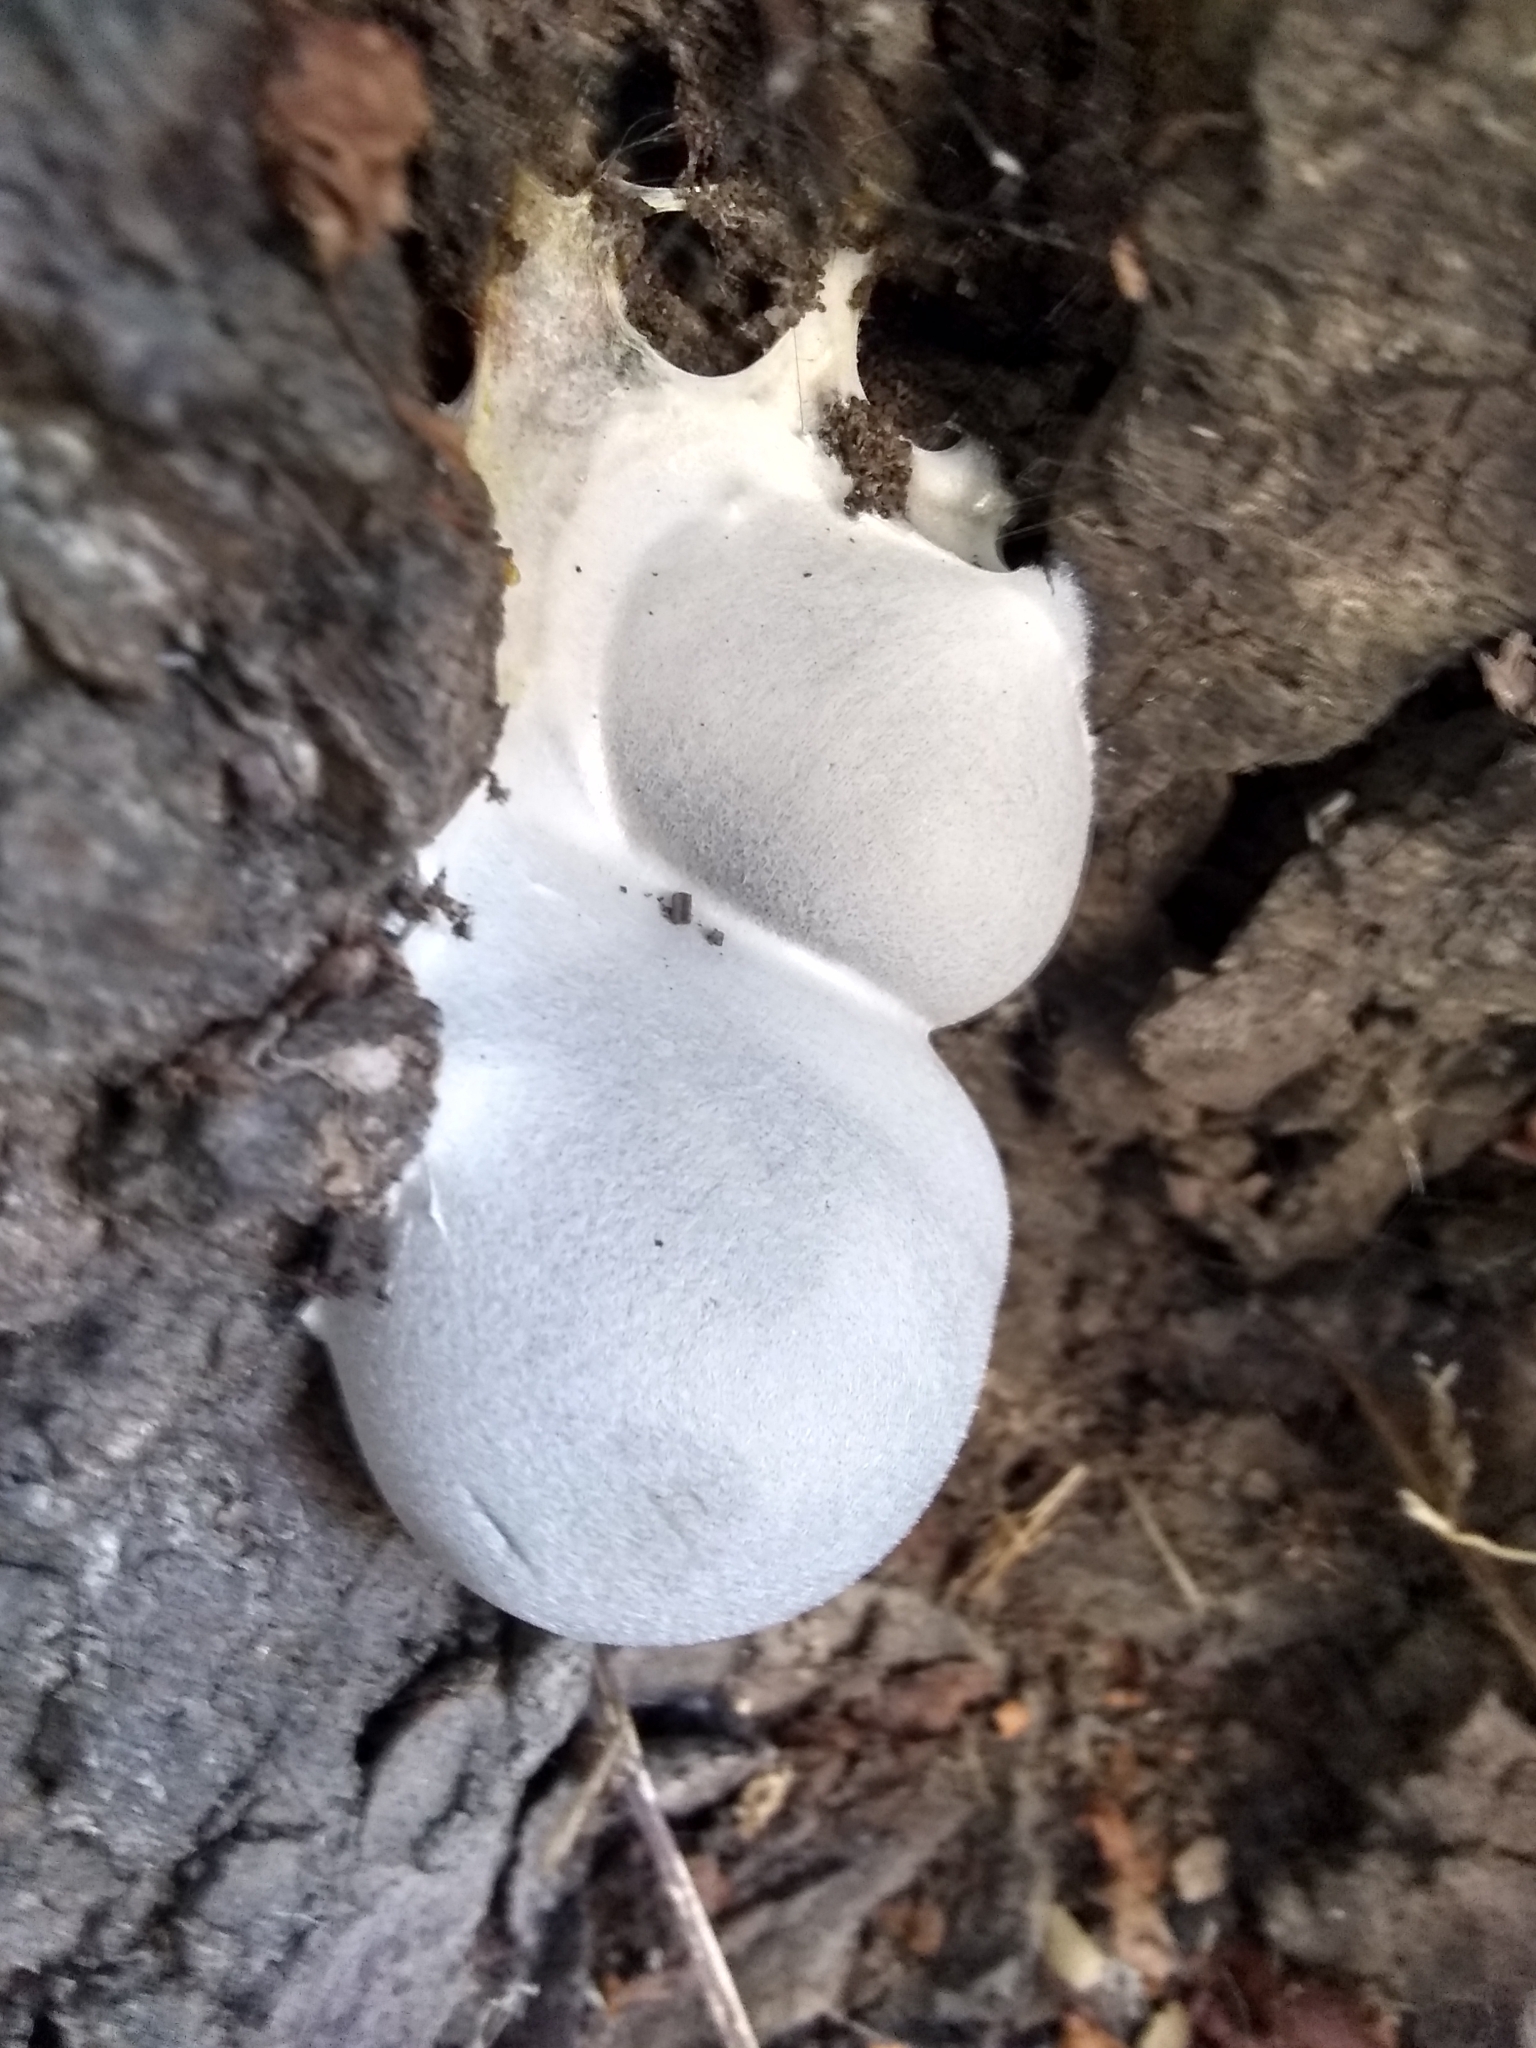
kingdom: Protozoa
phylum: Mycetozoa
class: Myxomycetes
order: Cribrariales
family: Tubiferaceae
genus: Lycogala
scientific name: Lycogala flavofuscum
